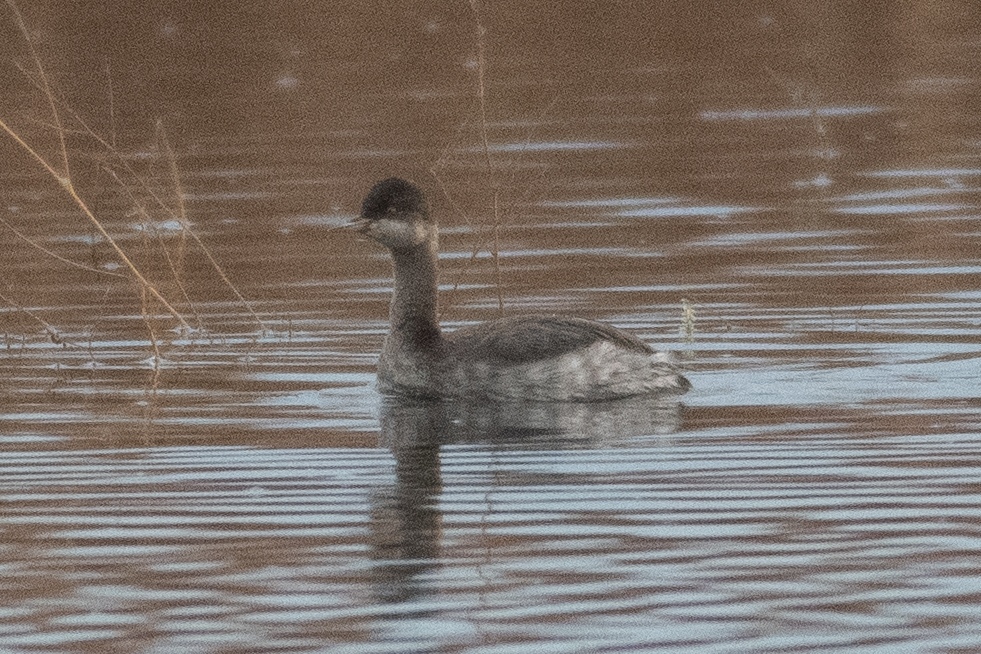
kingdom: Animalia
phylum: Chordata
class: Aves
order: Podicipediformes
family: Podicipedidae
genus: Podiceps
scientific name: Podiceps nigricollis
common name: Black-necked grebe
